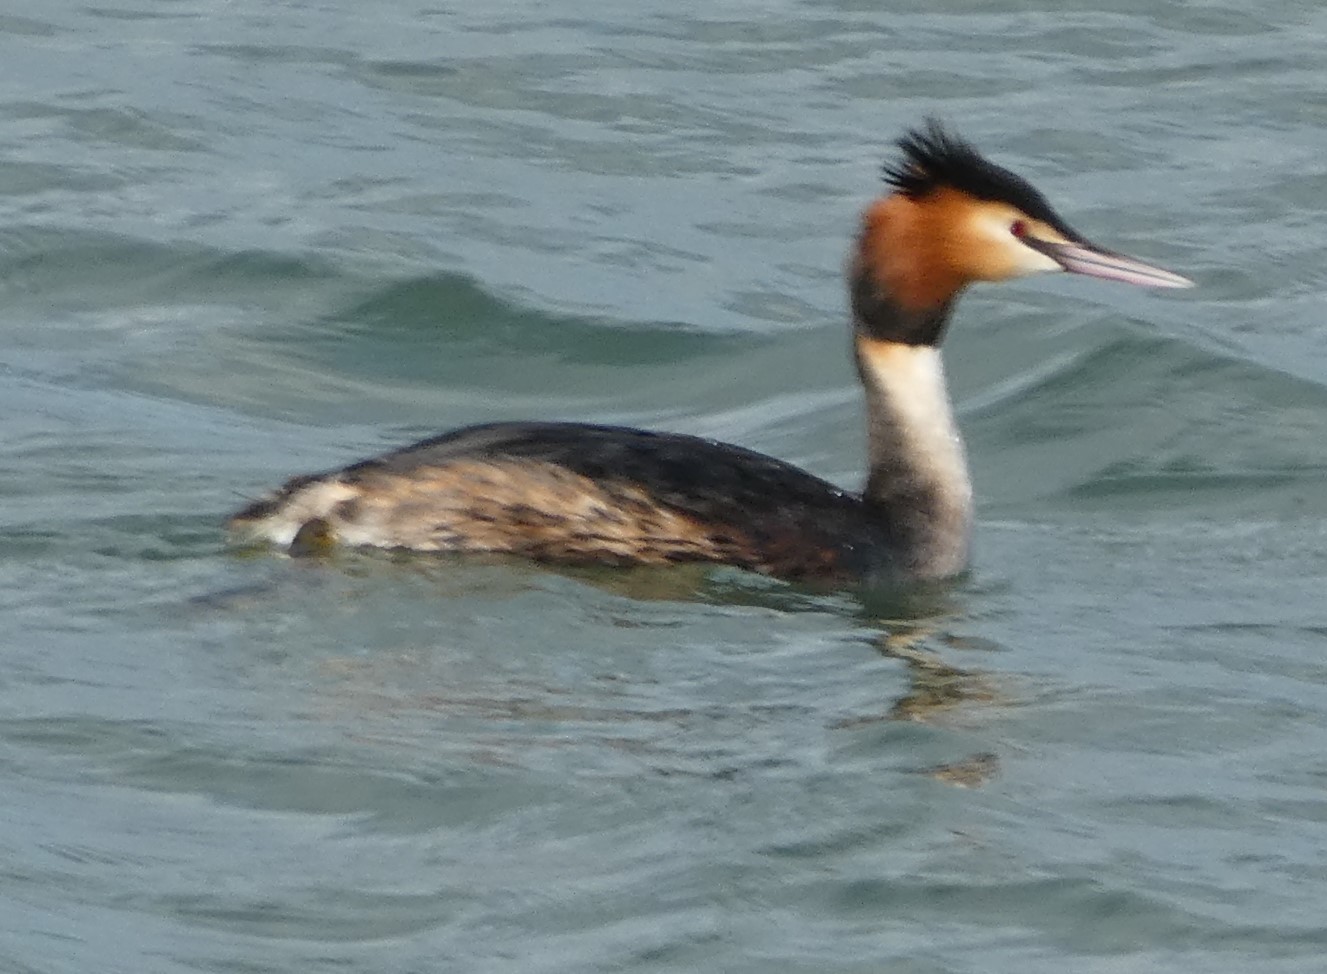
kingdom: Animalia
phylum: Chordata
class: Aves
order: Podicipediformes
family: Podicipedidae
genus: Podiceps
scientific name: Podiceps cristatus
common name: Great crested grebe
